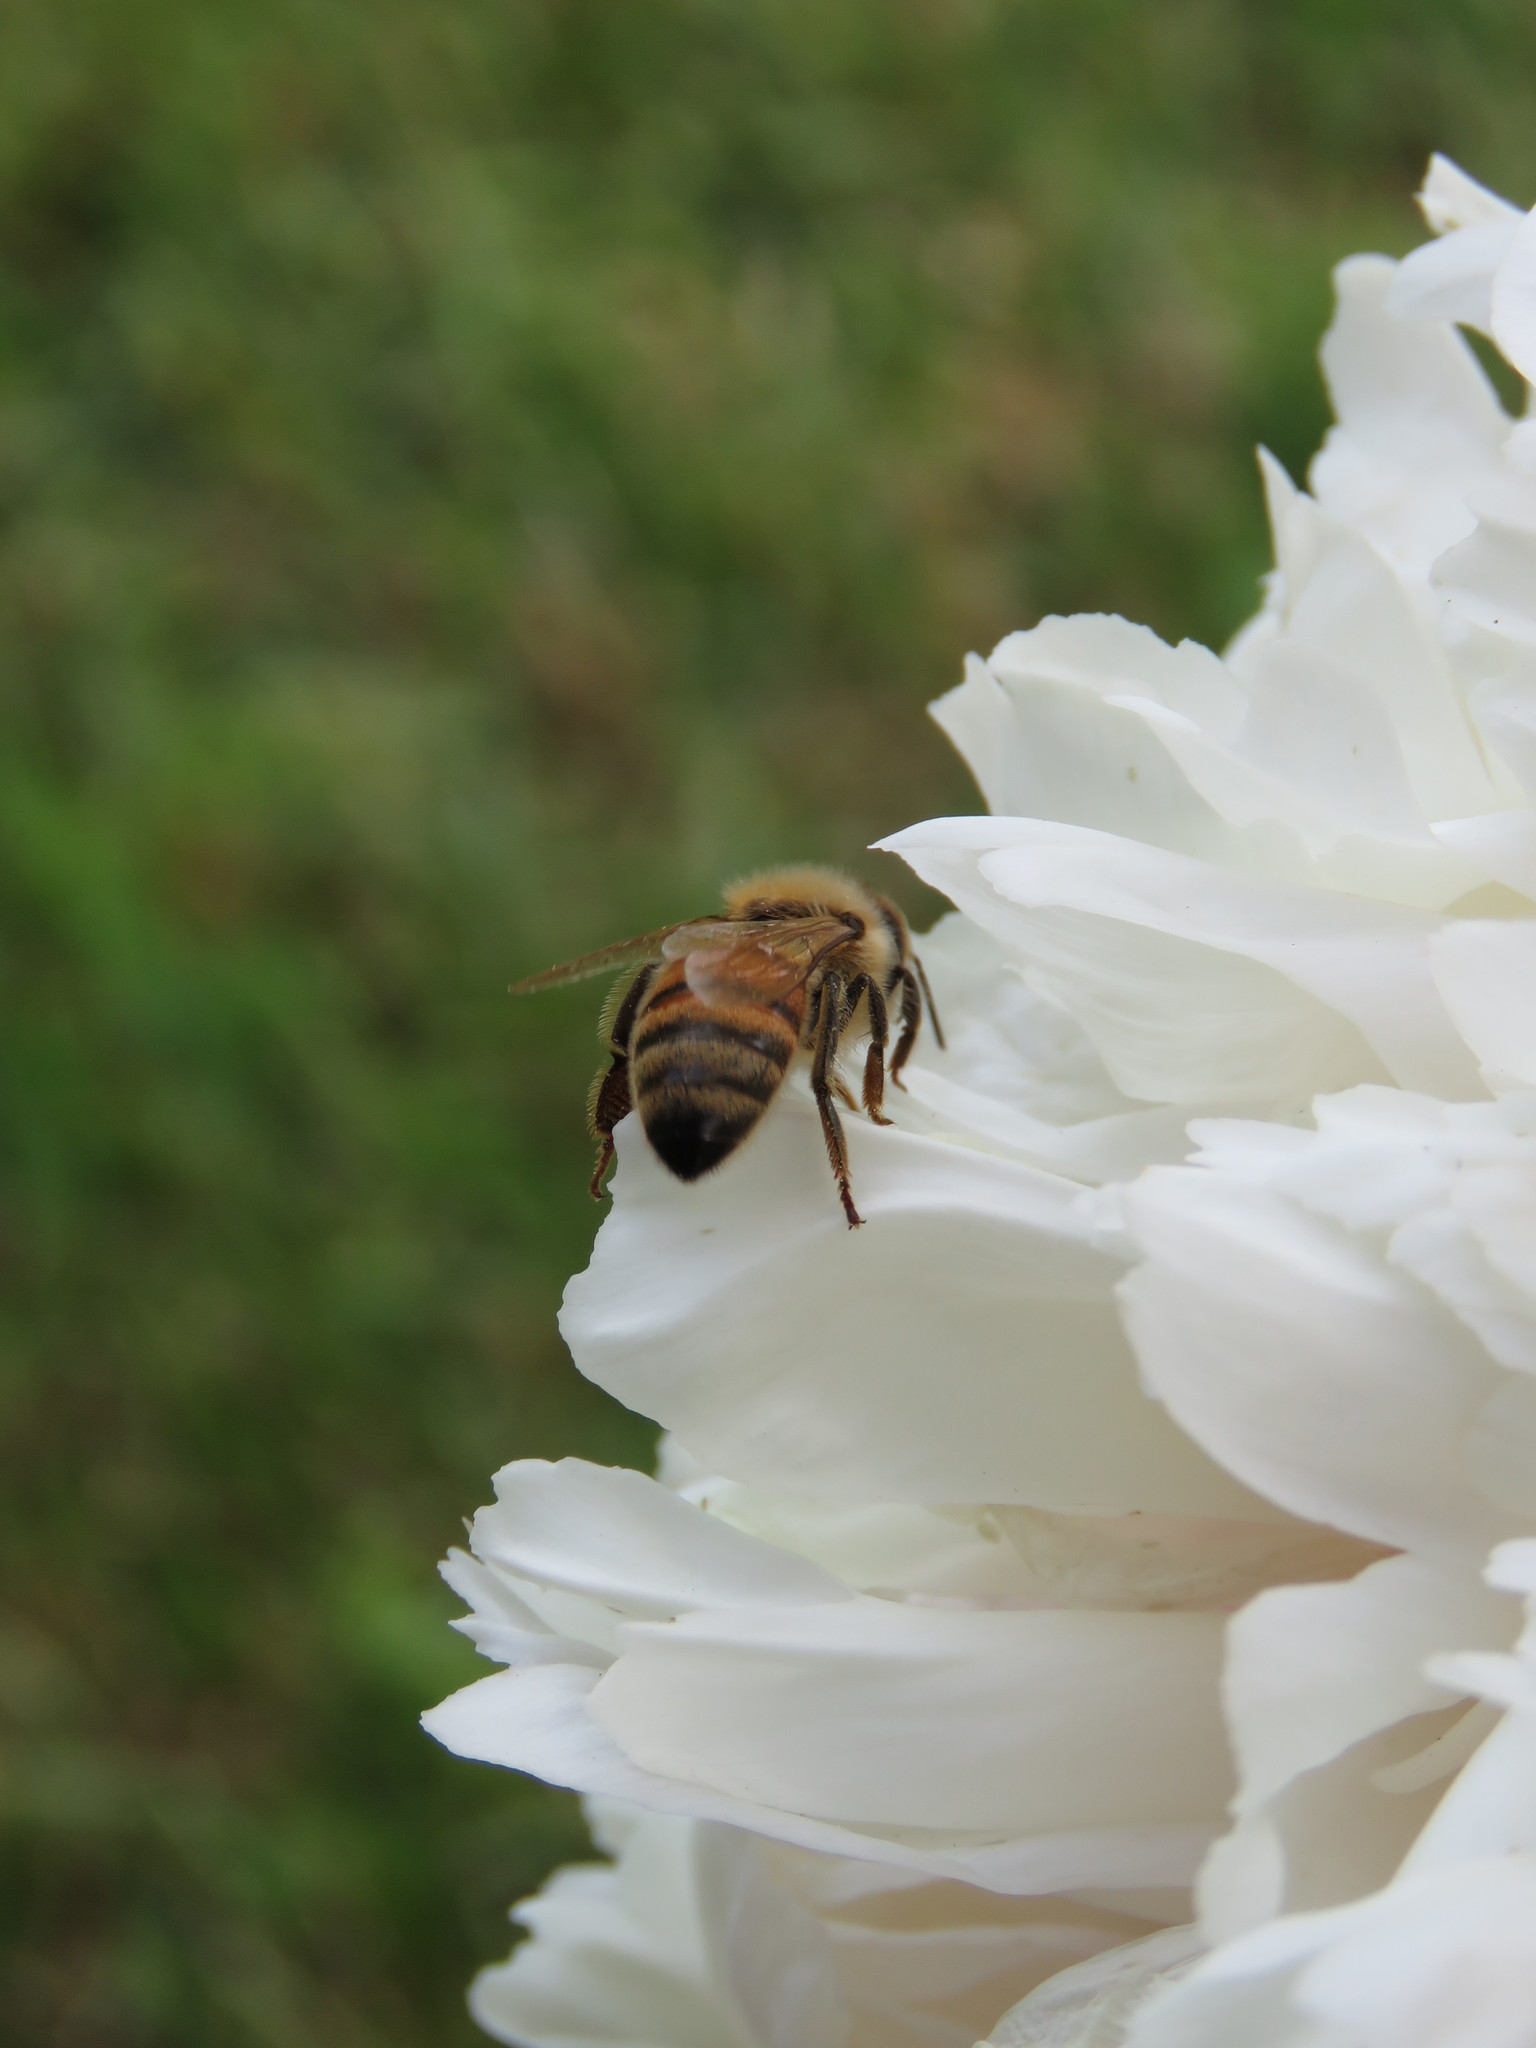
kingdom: Animalia
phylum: Arthropoda
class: Insecta
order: Hymenoptera
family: Apidae
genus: Apis
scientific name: Apis mellifera
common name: Honey bee
